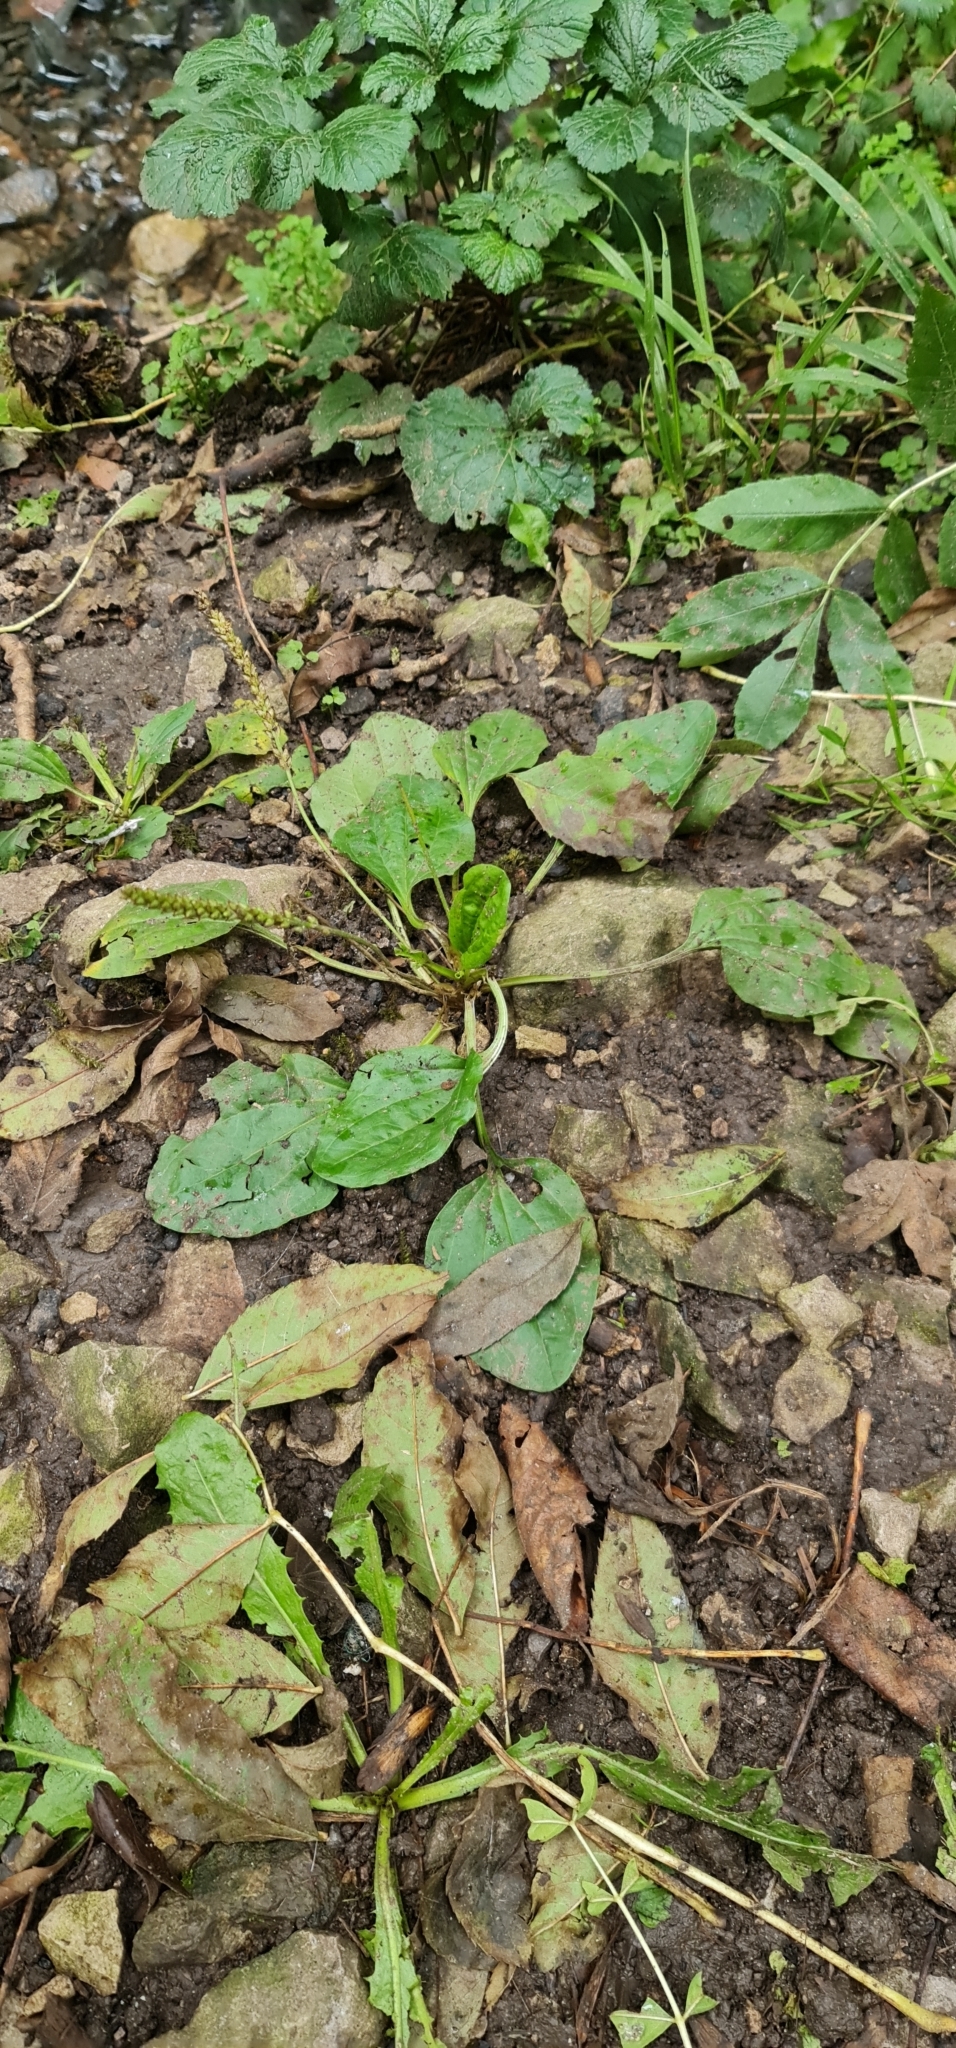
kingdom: Plantae
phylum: Tracheophyta
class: Magnoliopsida
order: Lamiales
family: Plantaginaceae
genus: Plantago
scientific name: Plantago major
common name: Common plantain
